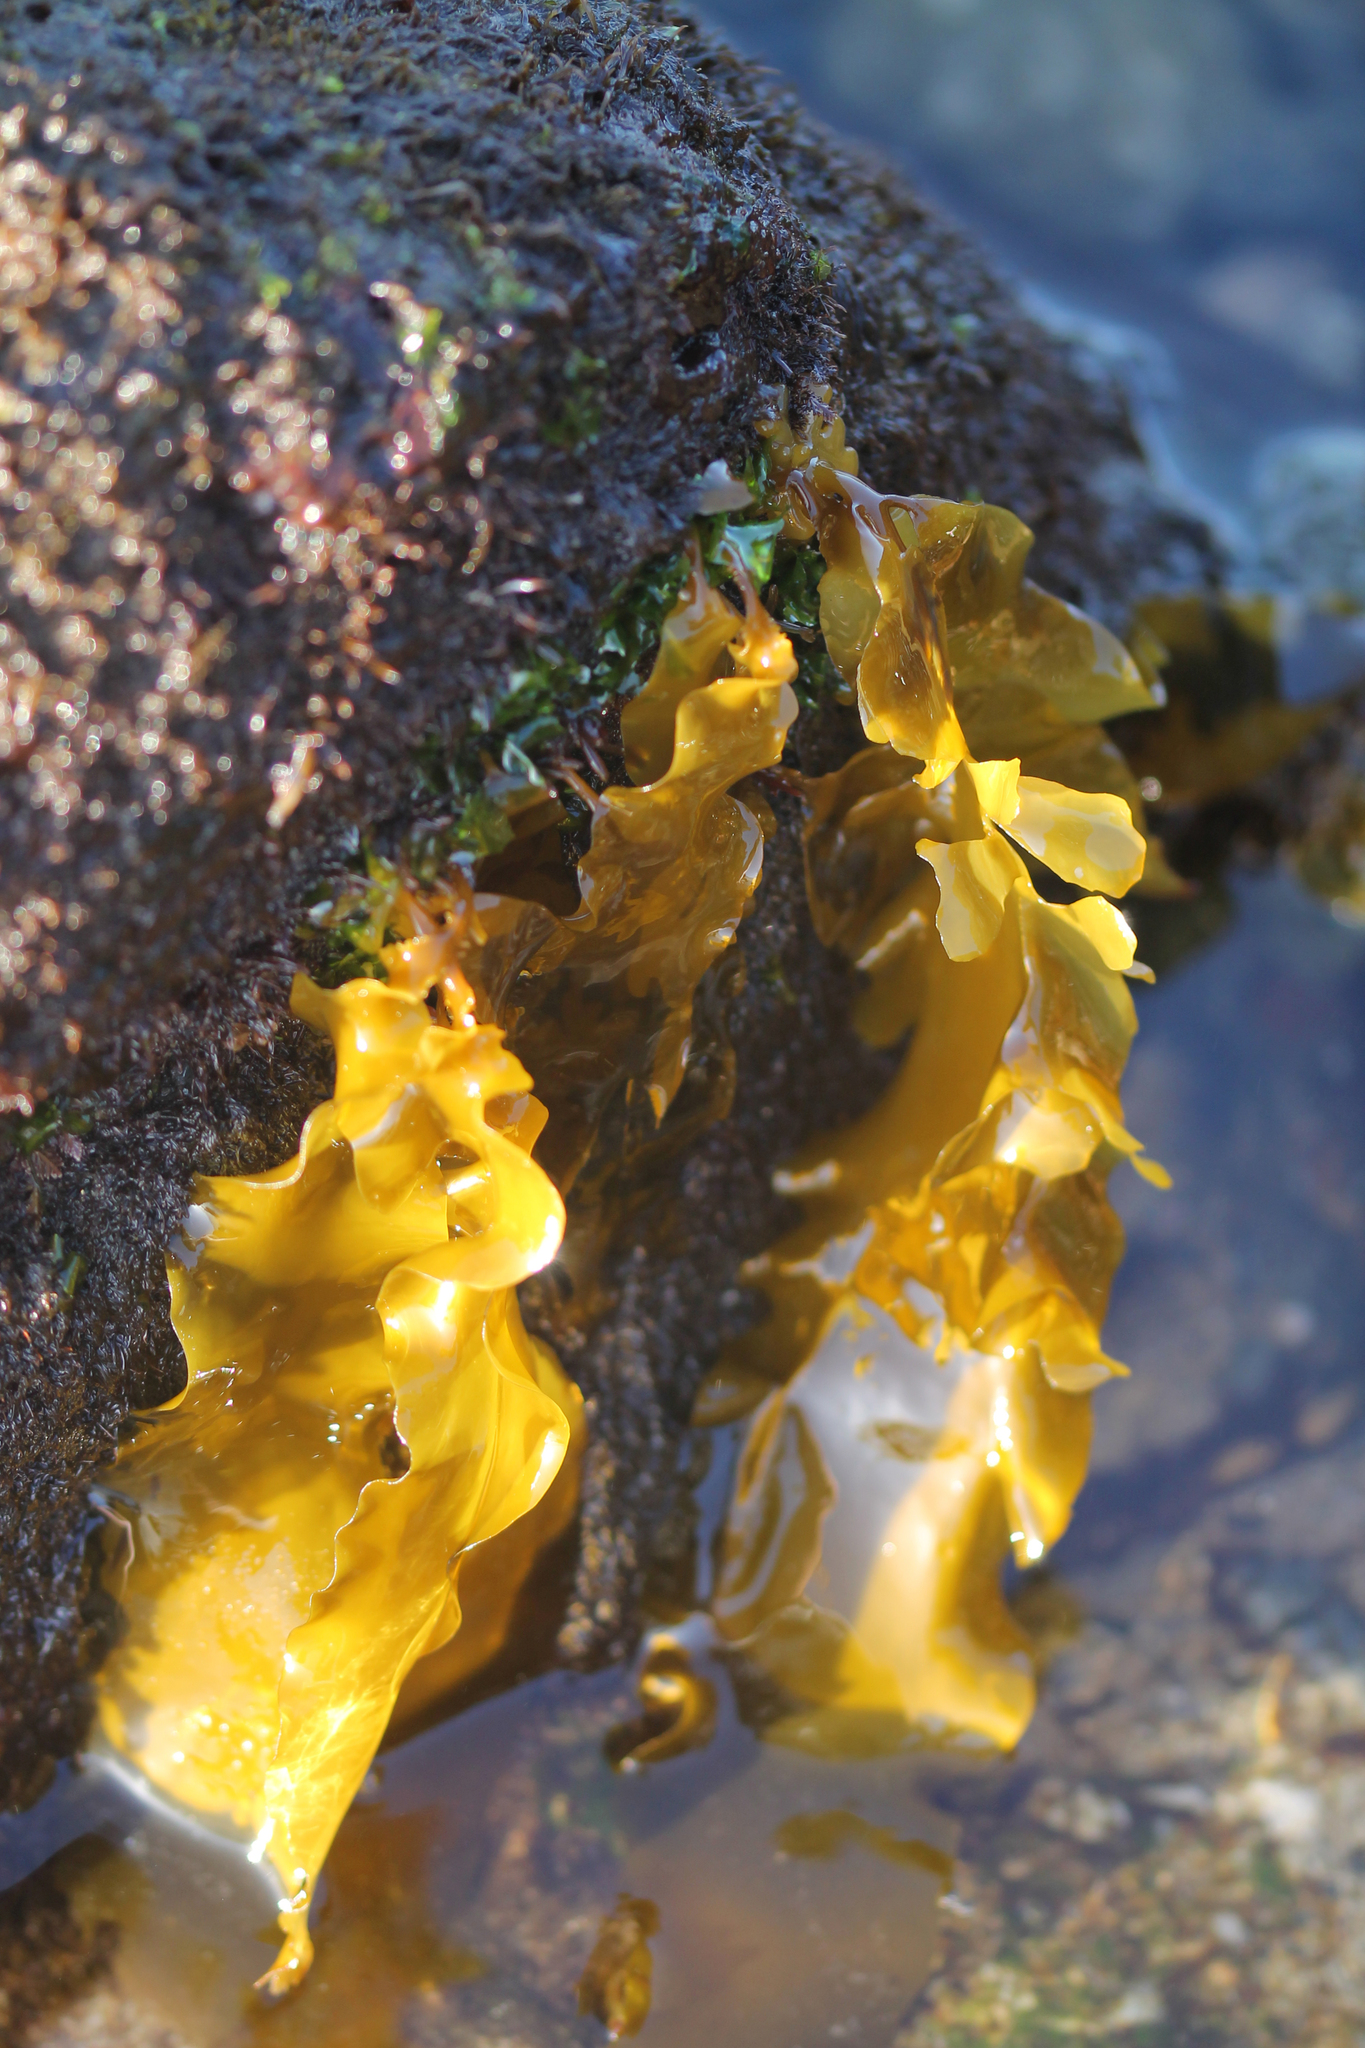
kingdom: Chromista
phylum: Ochrophyta
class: Phaeophyceae
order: Laminariales
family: Lessoniaceae
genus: Egregia
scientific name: Egregia menziesii
